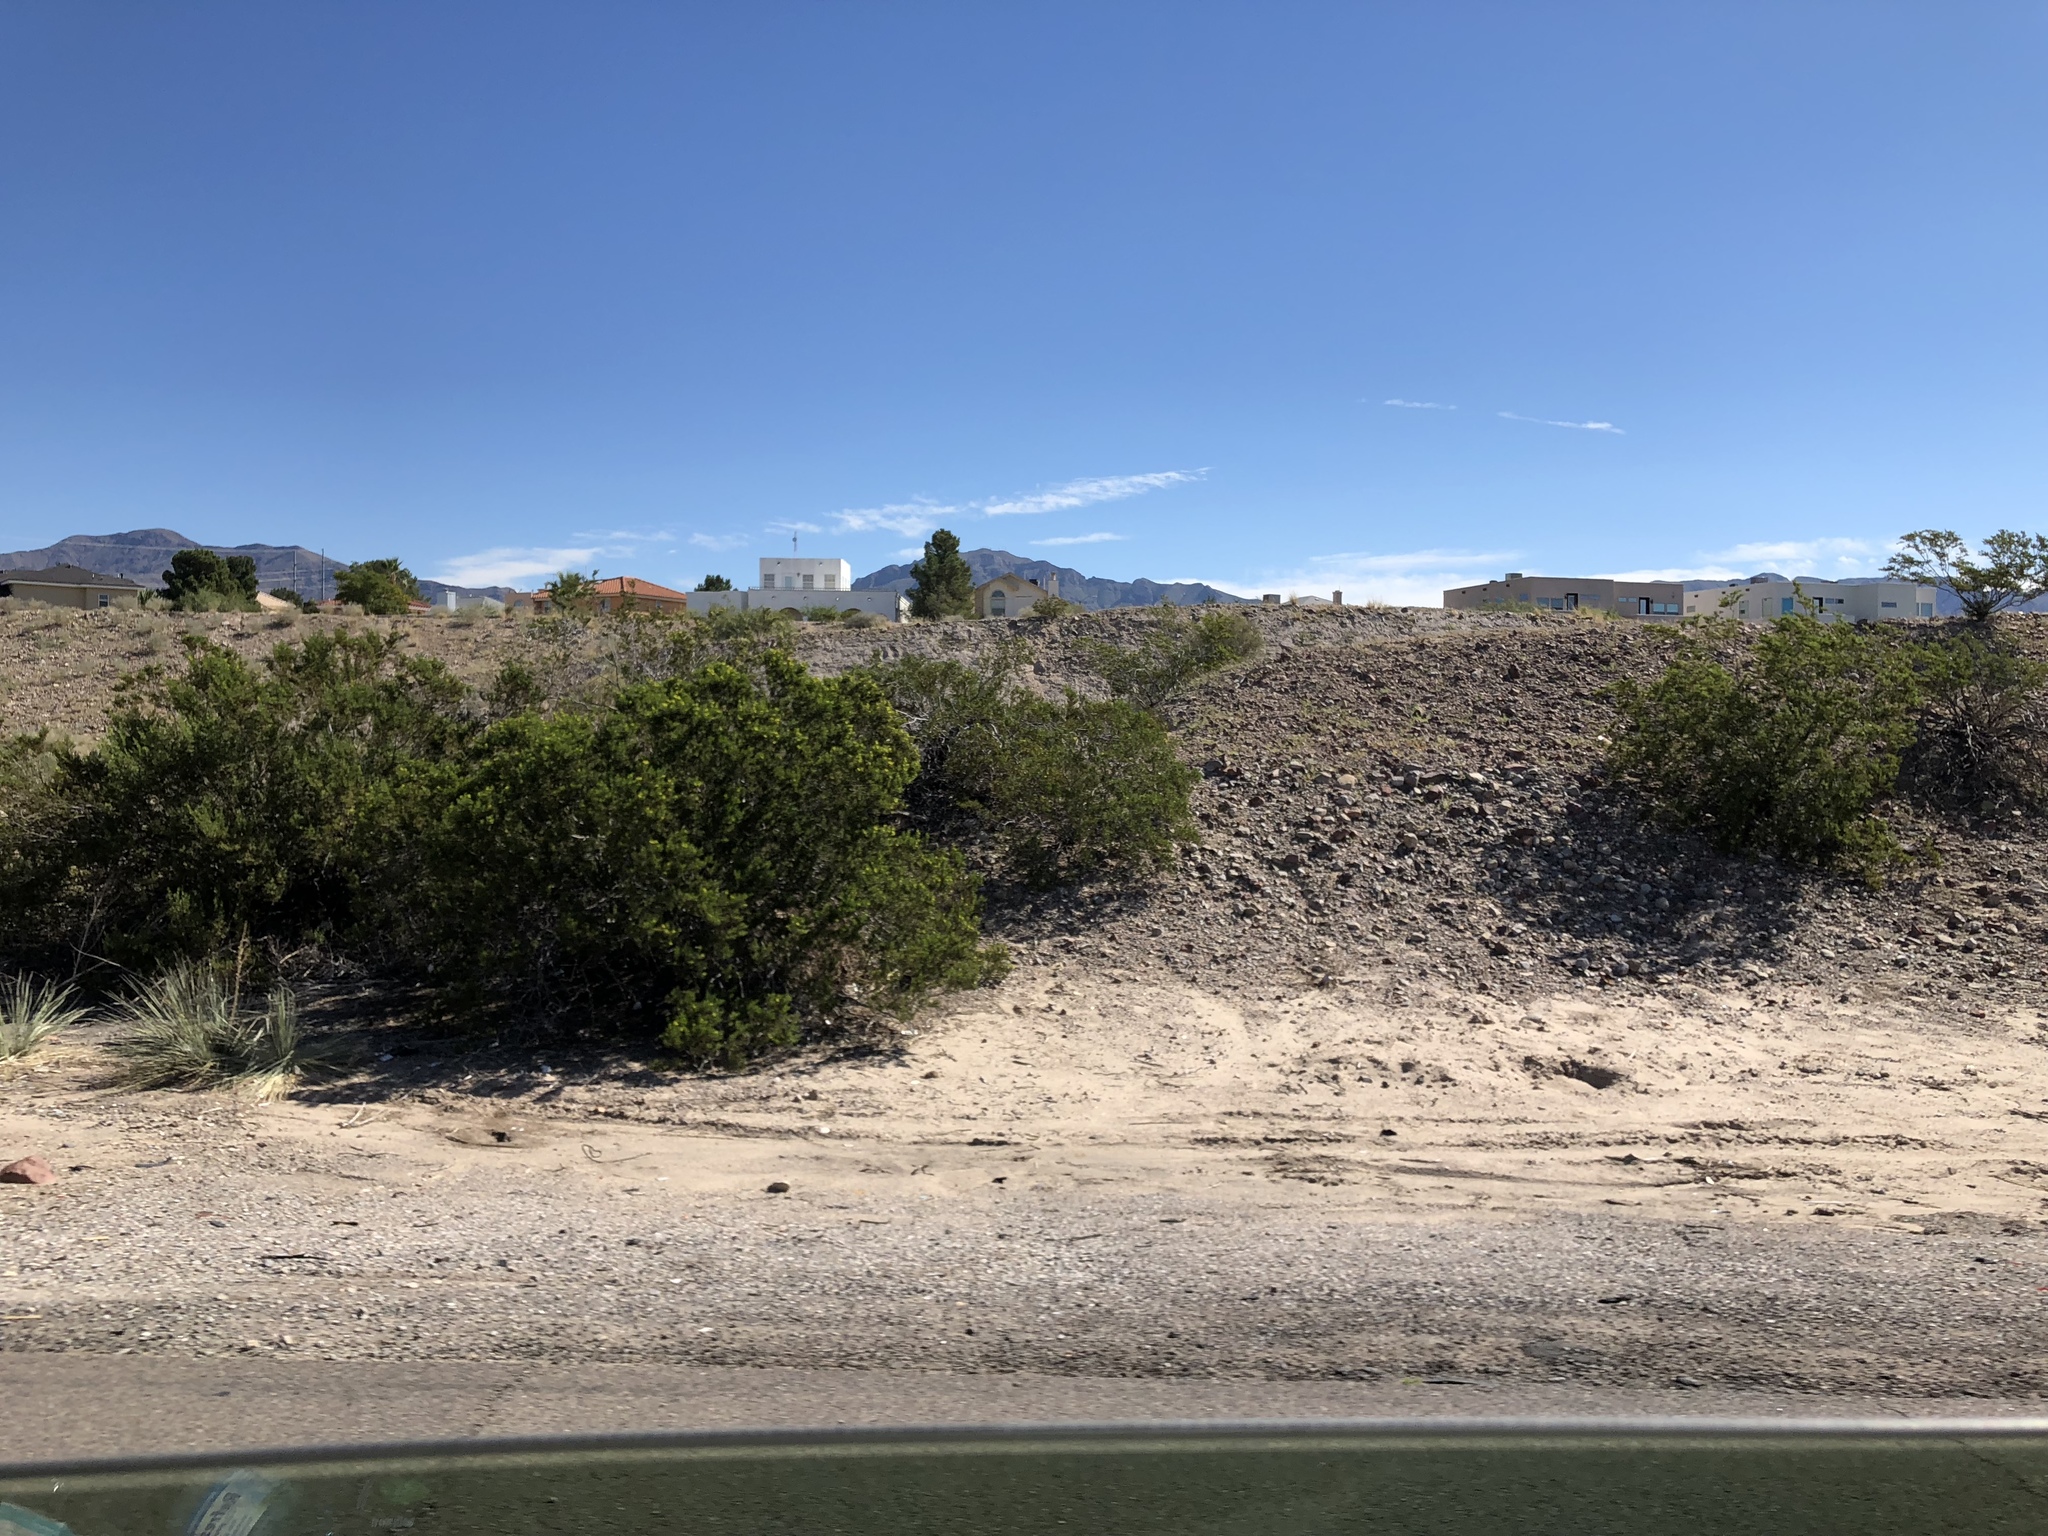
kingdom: Plantae
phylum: Tracheophyta
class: Magnoliopsida
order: Zygophyllales
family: Zygophyllaceae
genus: Larrea
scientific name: Larrea tridentata
